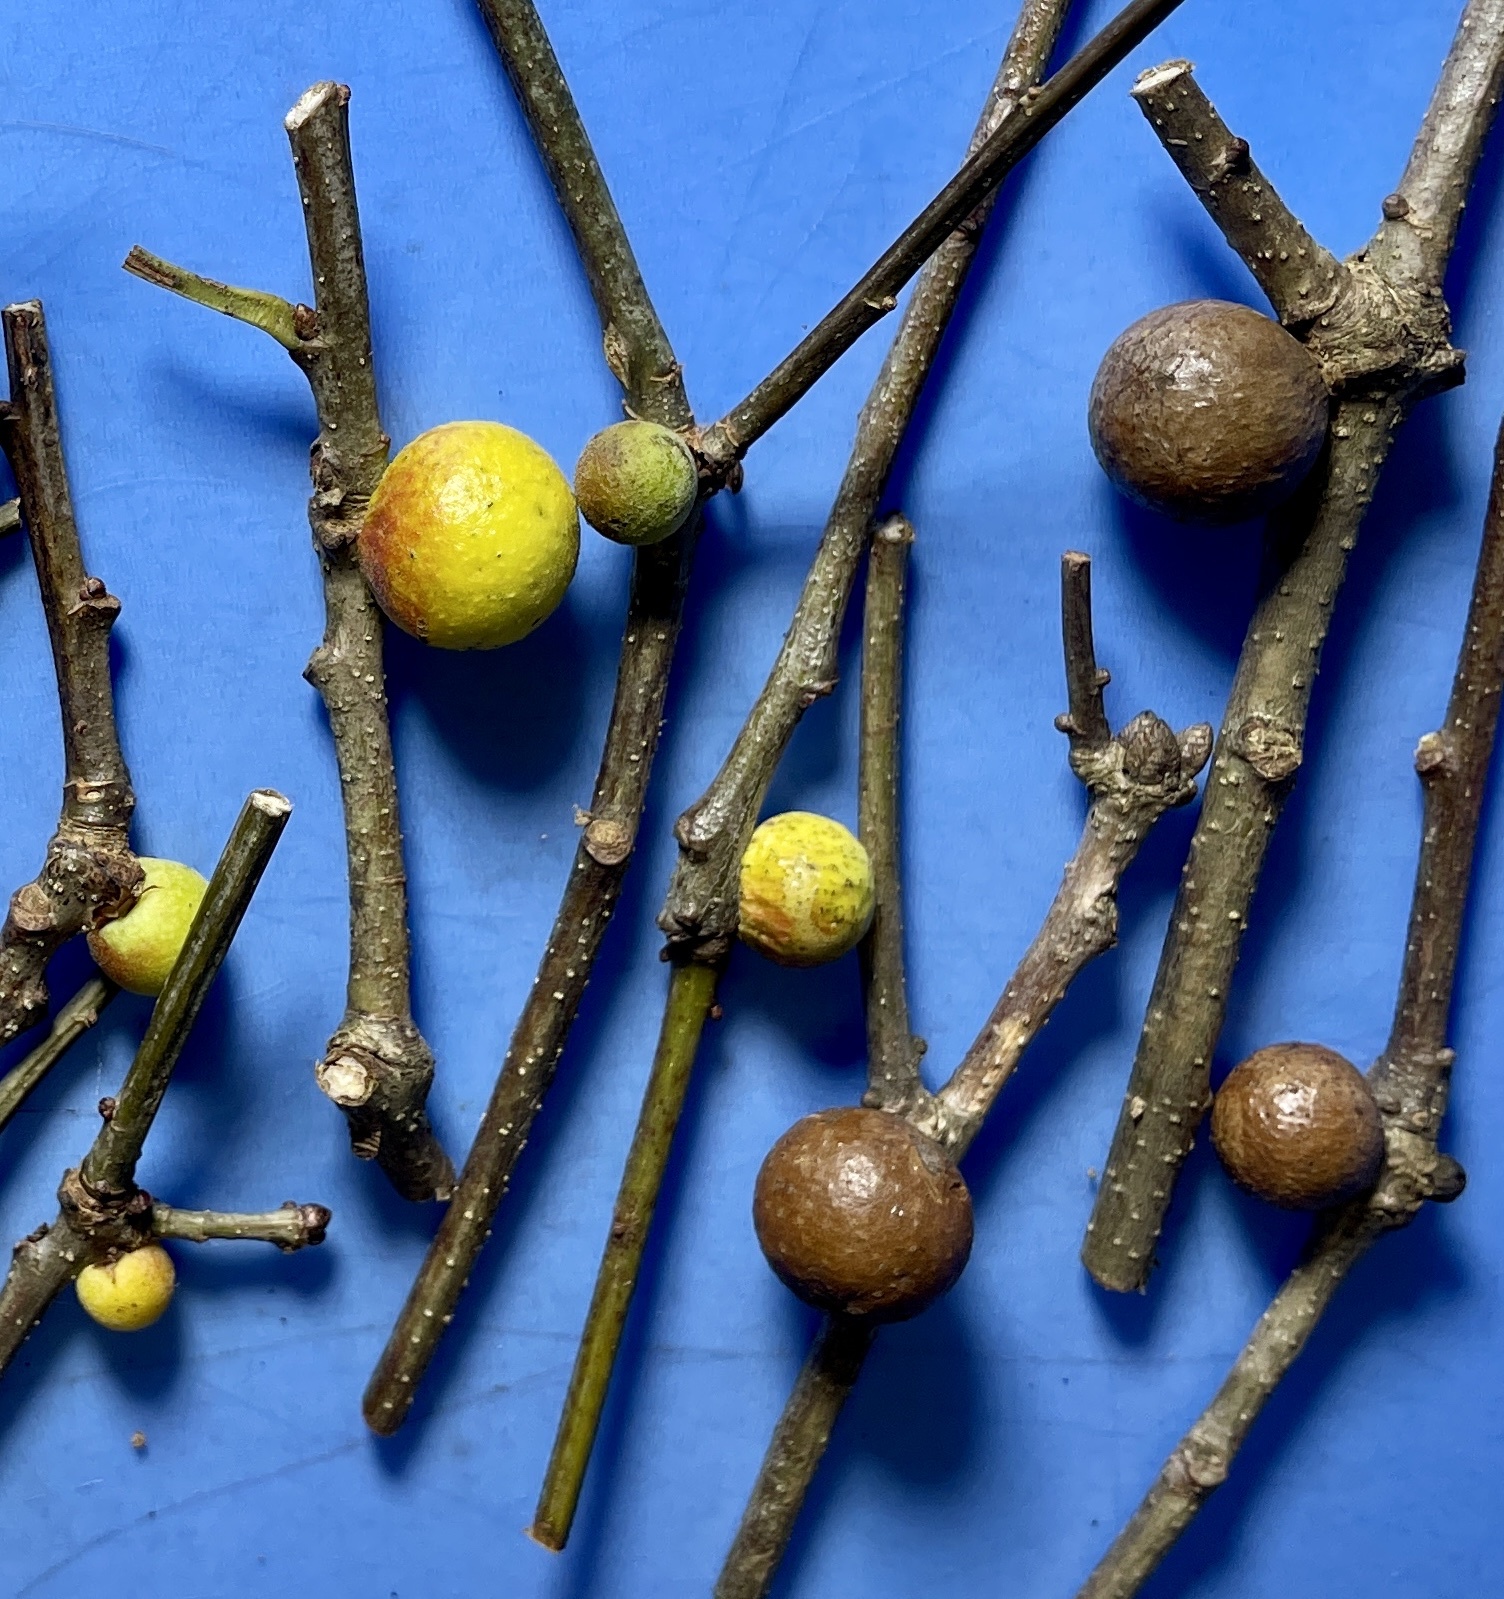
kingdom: Animalia
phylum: Arthropoda
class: Insecta
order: Hymenoptera
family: Cynipidae
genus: Disholcaspis
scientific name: Disholcaspis quercusglobulus
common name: Round bullet gall wasp
